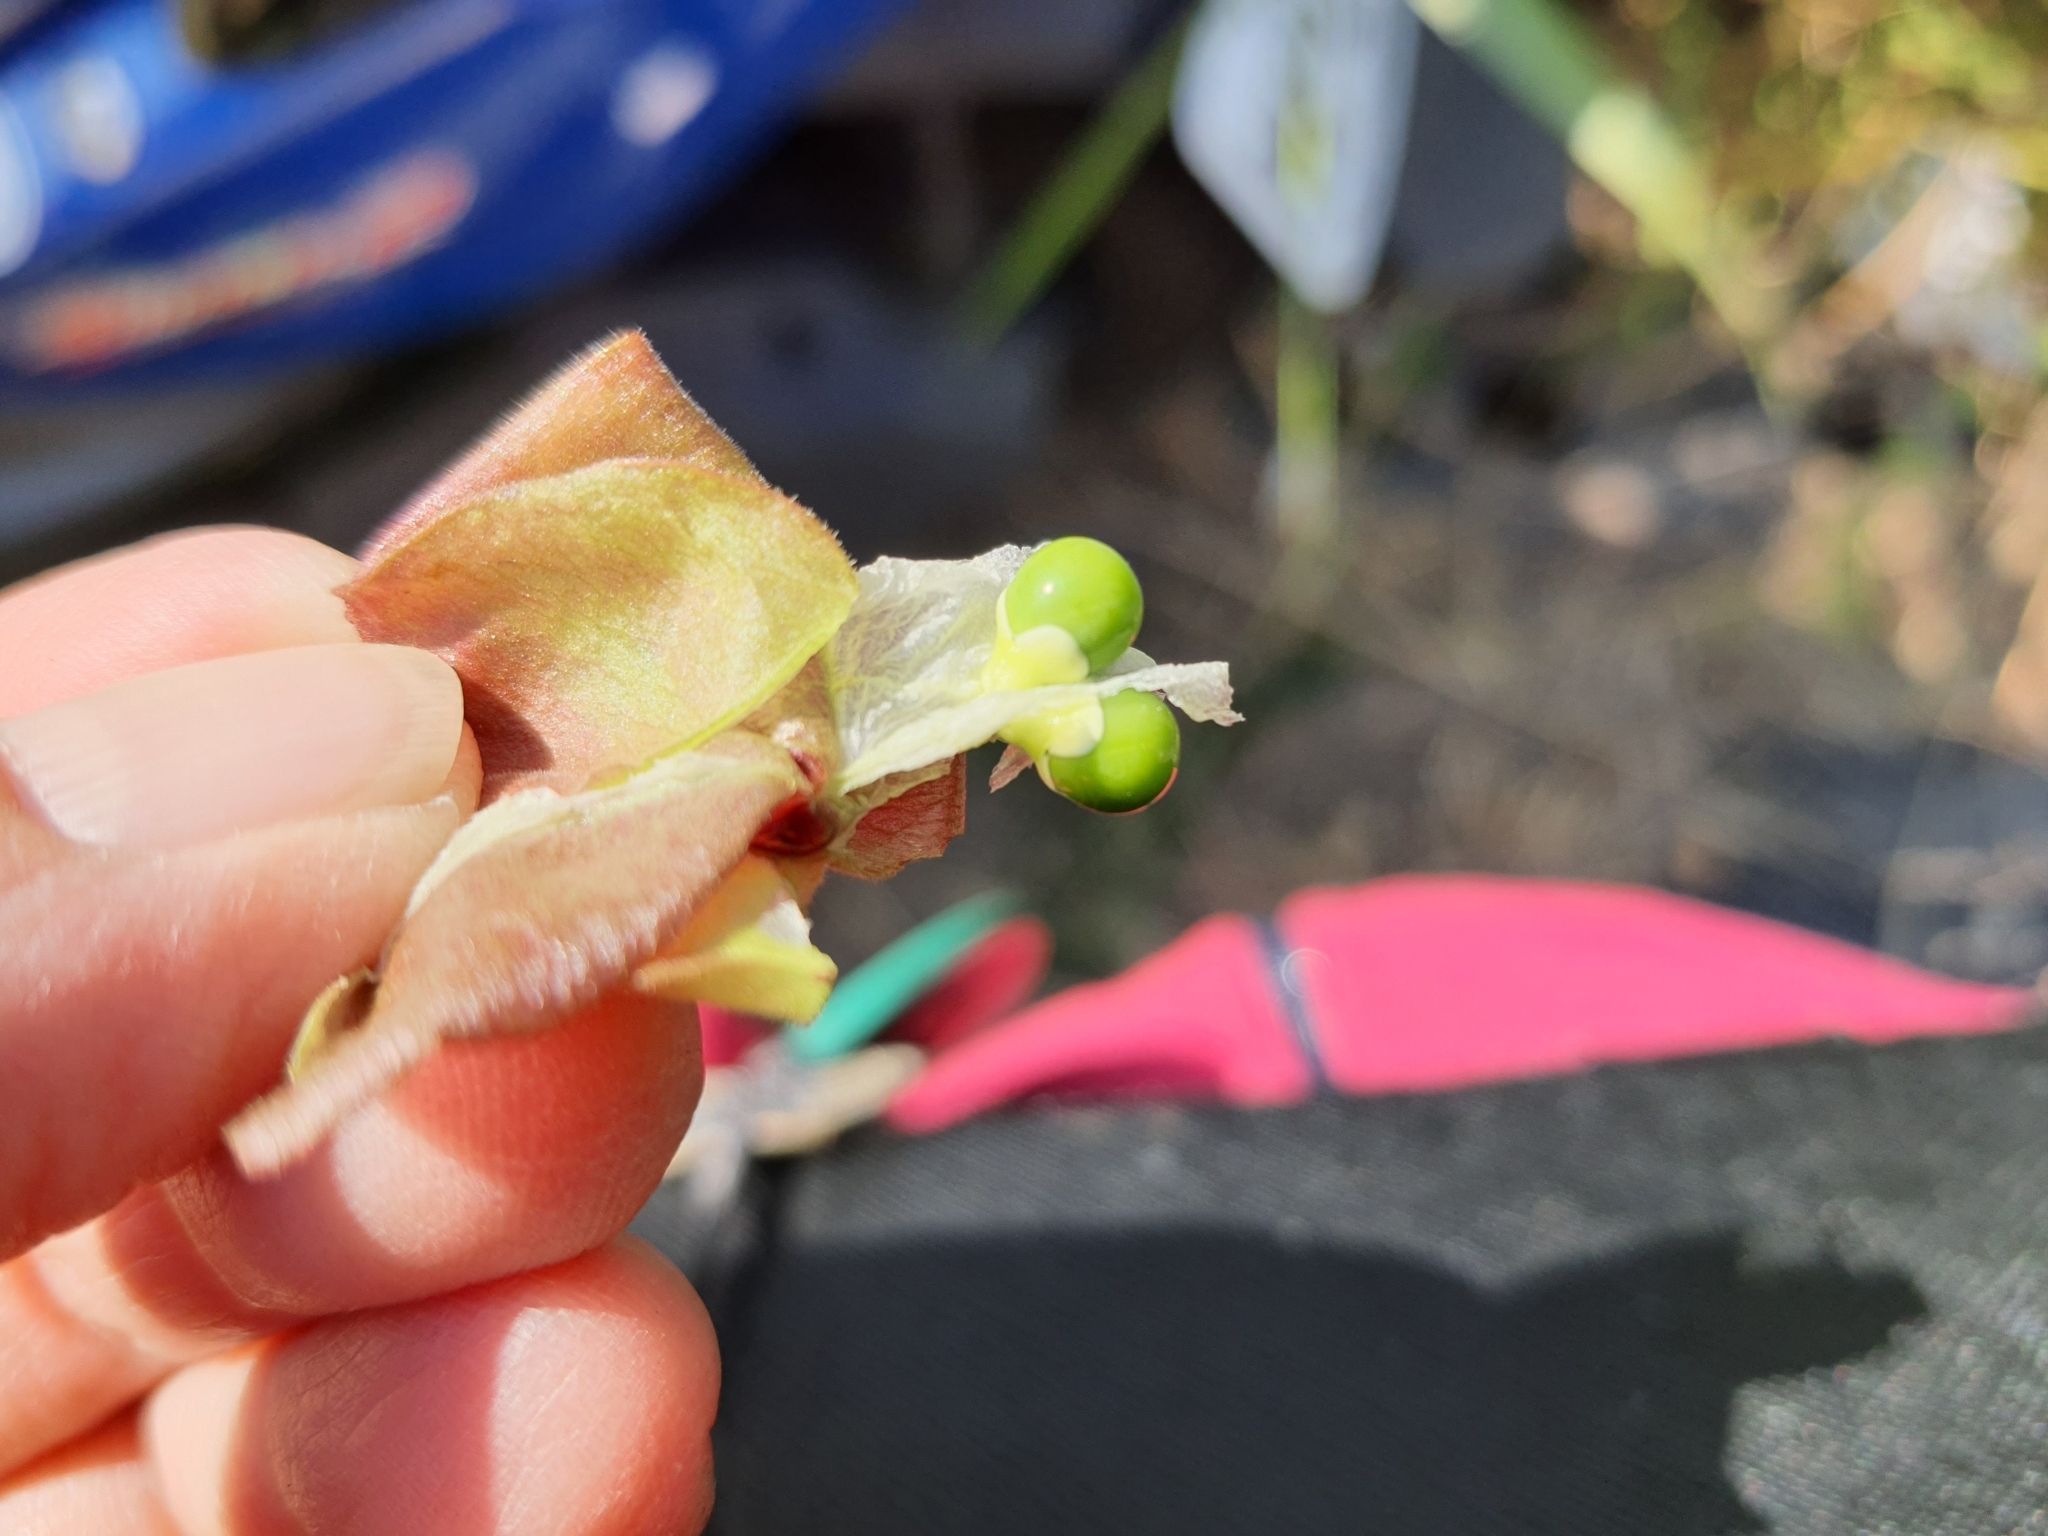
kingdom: Plantae
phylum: Tracheophyta
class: Magnoliopsida
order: Sapindales
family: Sapindaceae
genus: Cardiospermum
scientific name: Cardiospermum halicacabum
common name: Balloon vine
